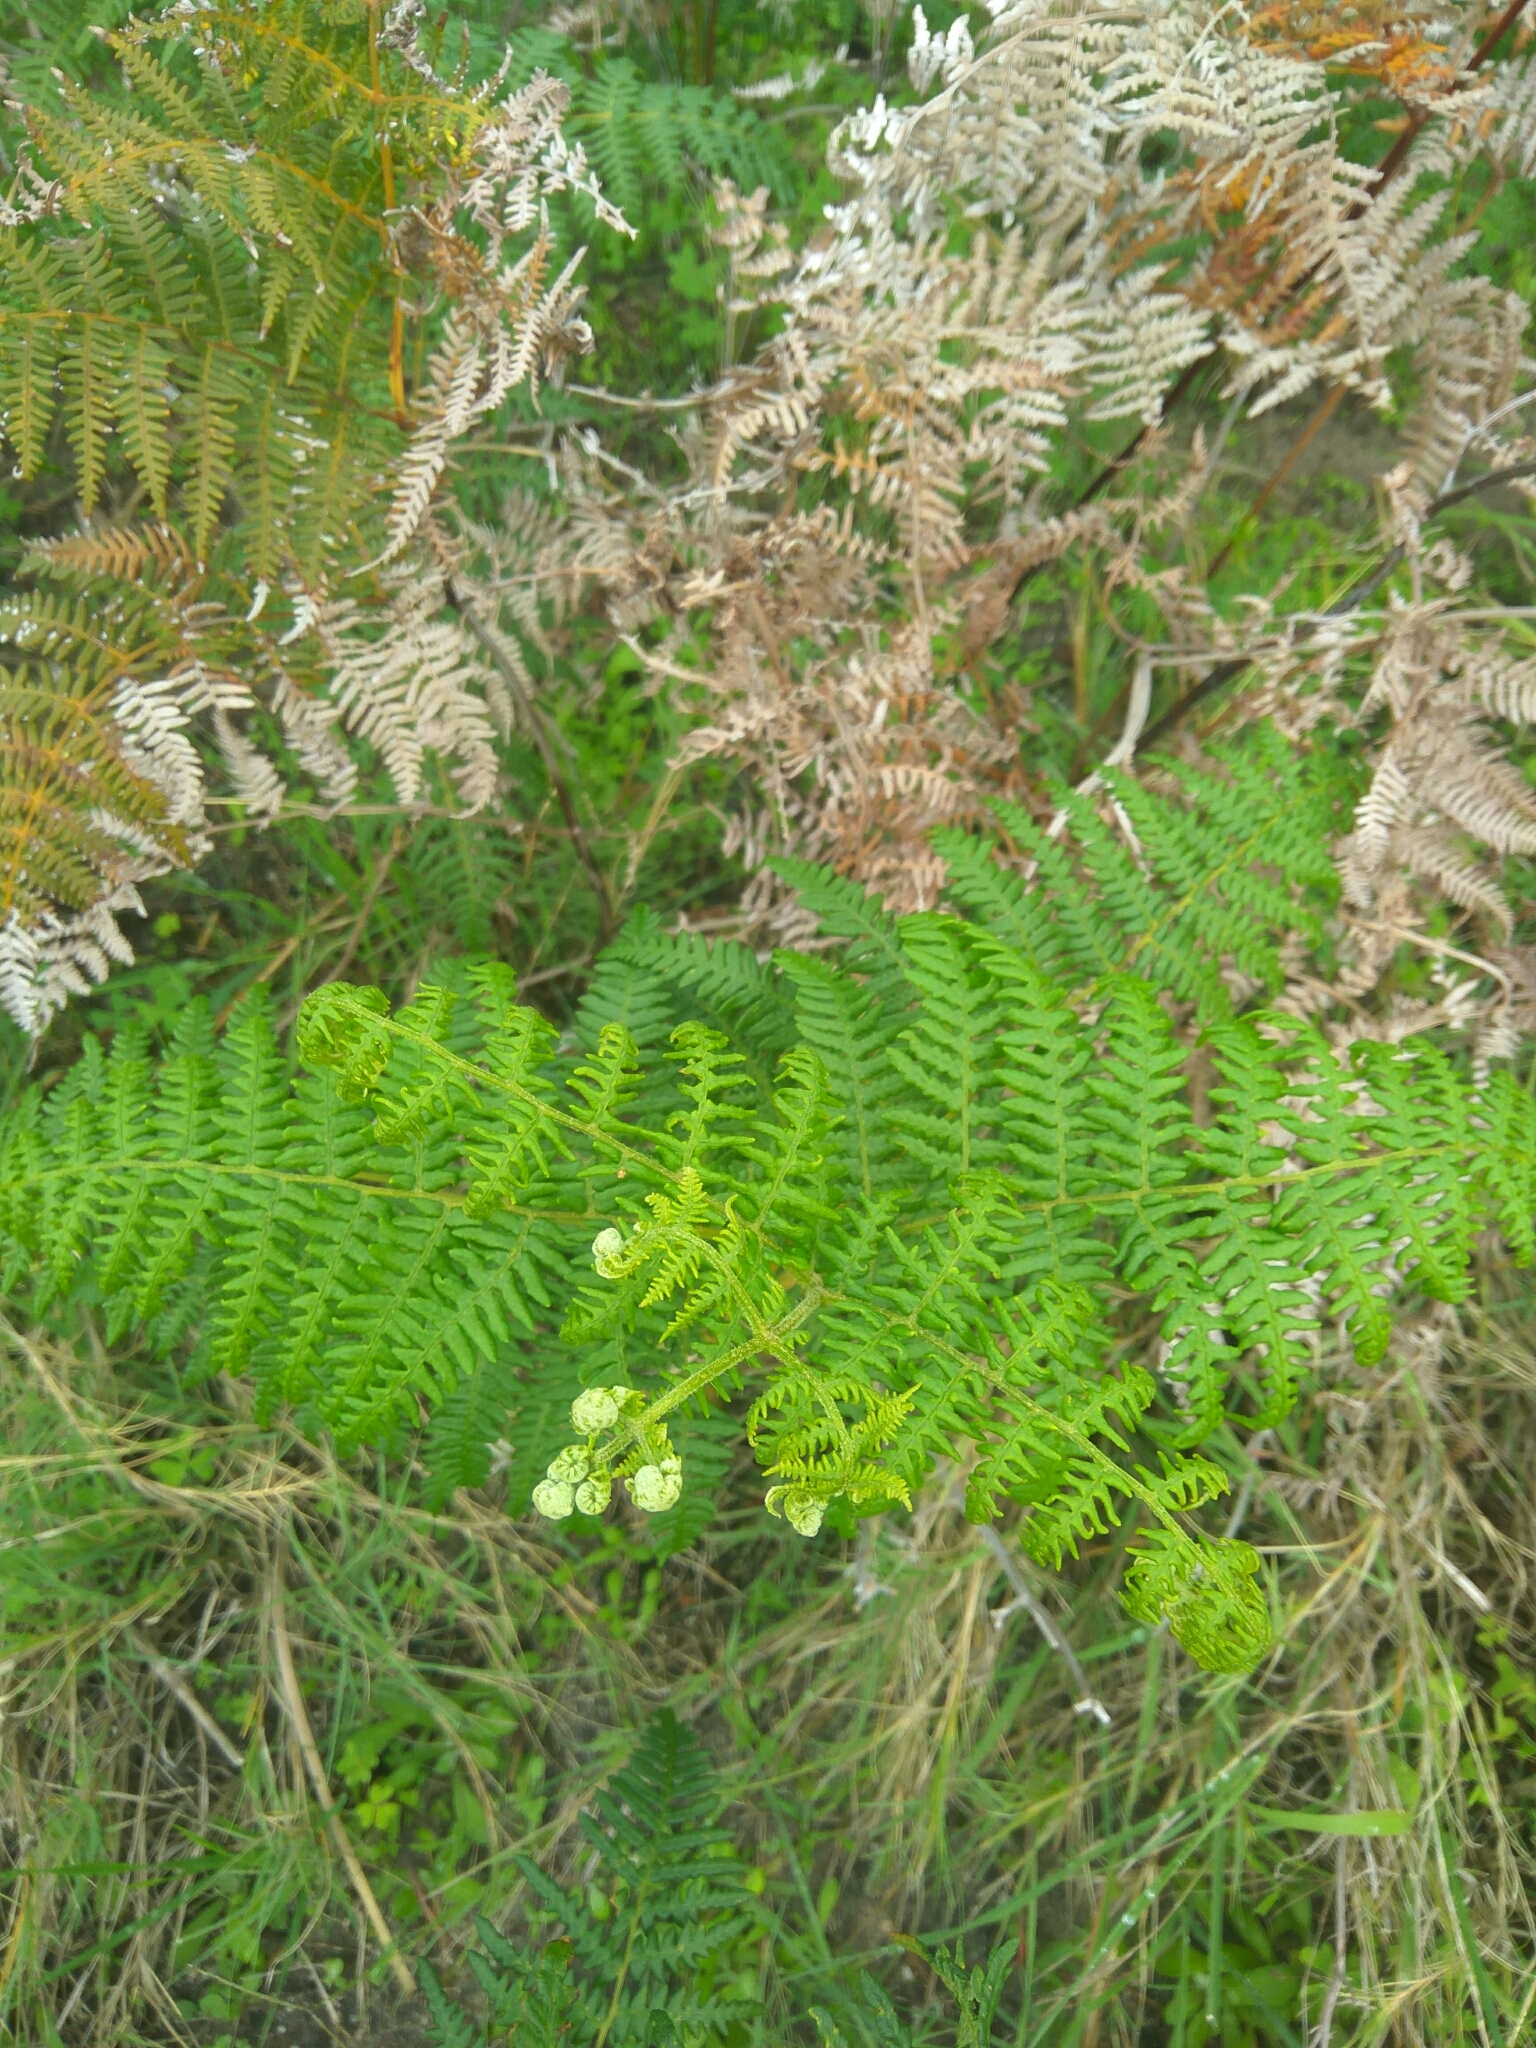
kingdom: Plantae
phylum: Tracheophyta
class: Polypodiopsida
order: Polypodiales
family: Dennstaedtiaceae
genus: Pteridium
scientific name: Pteridium aquilinum
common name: Bracken
